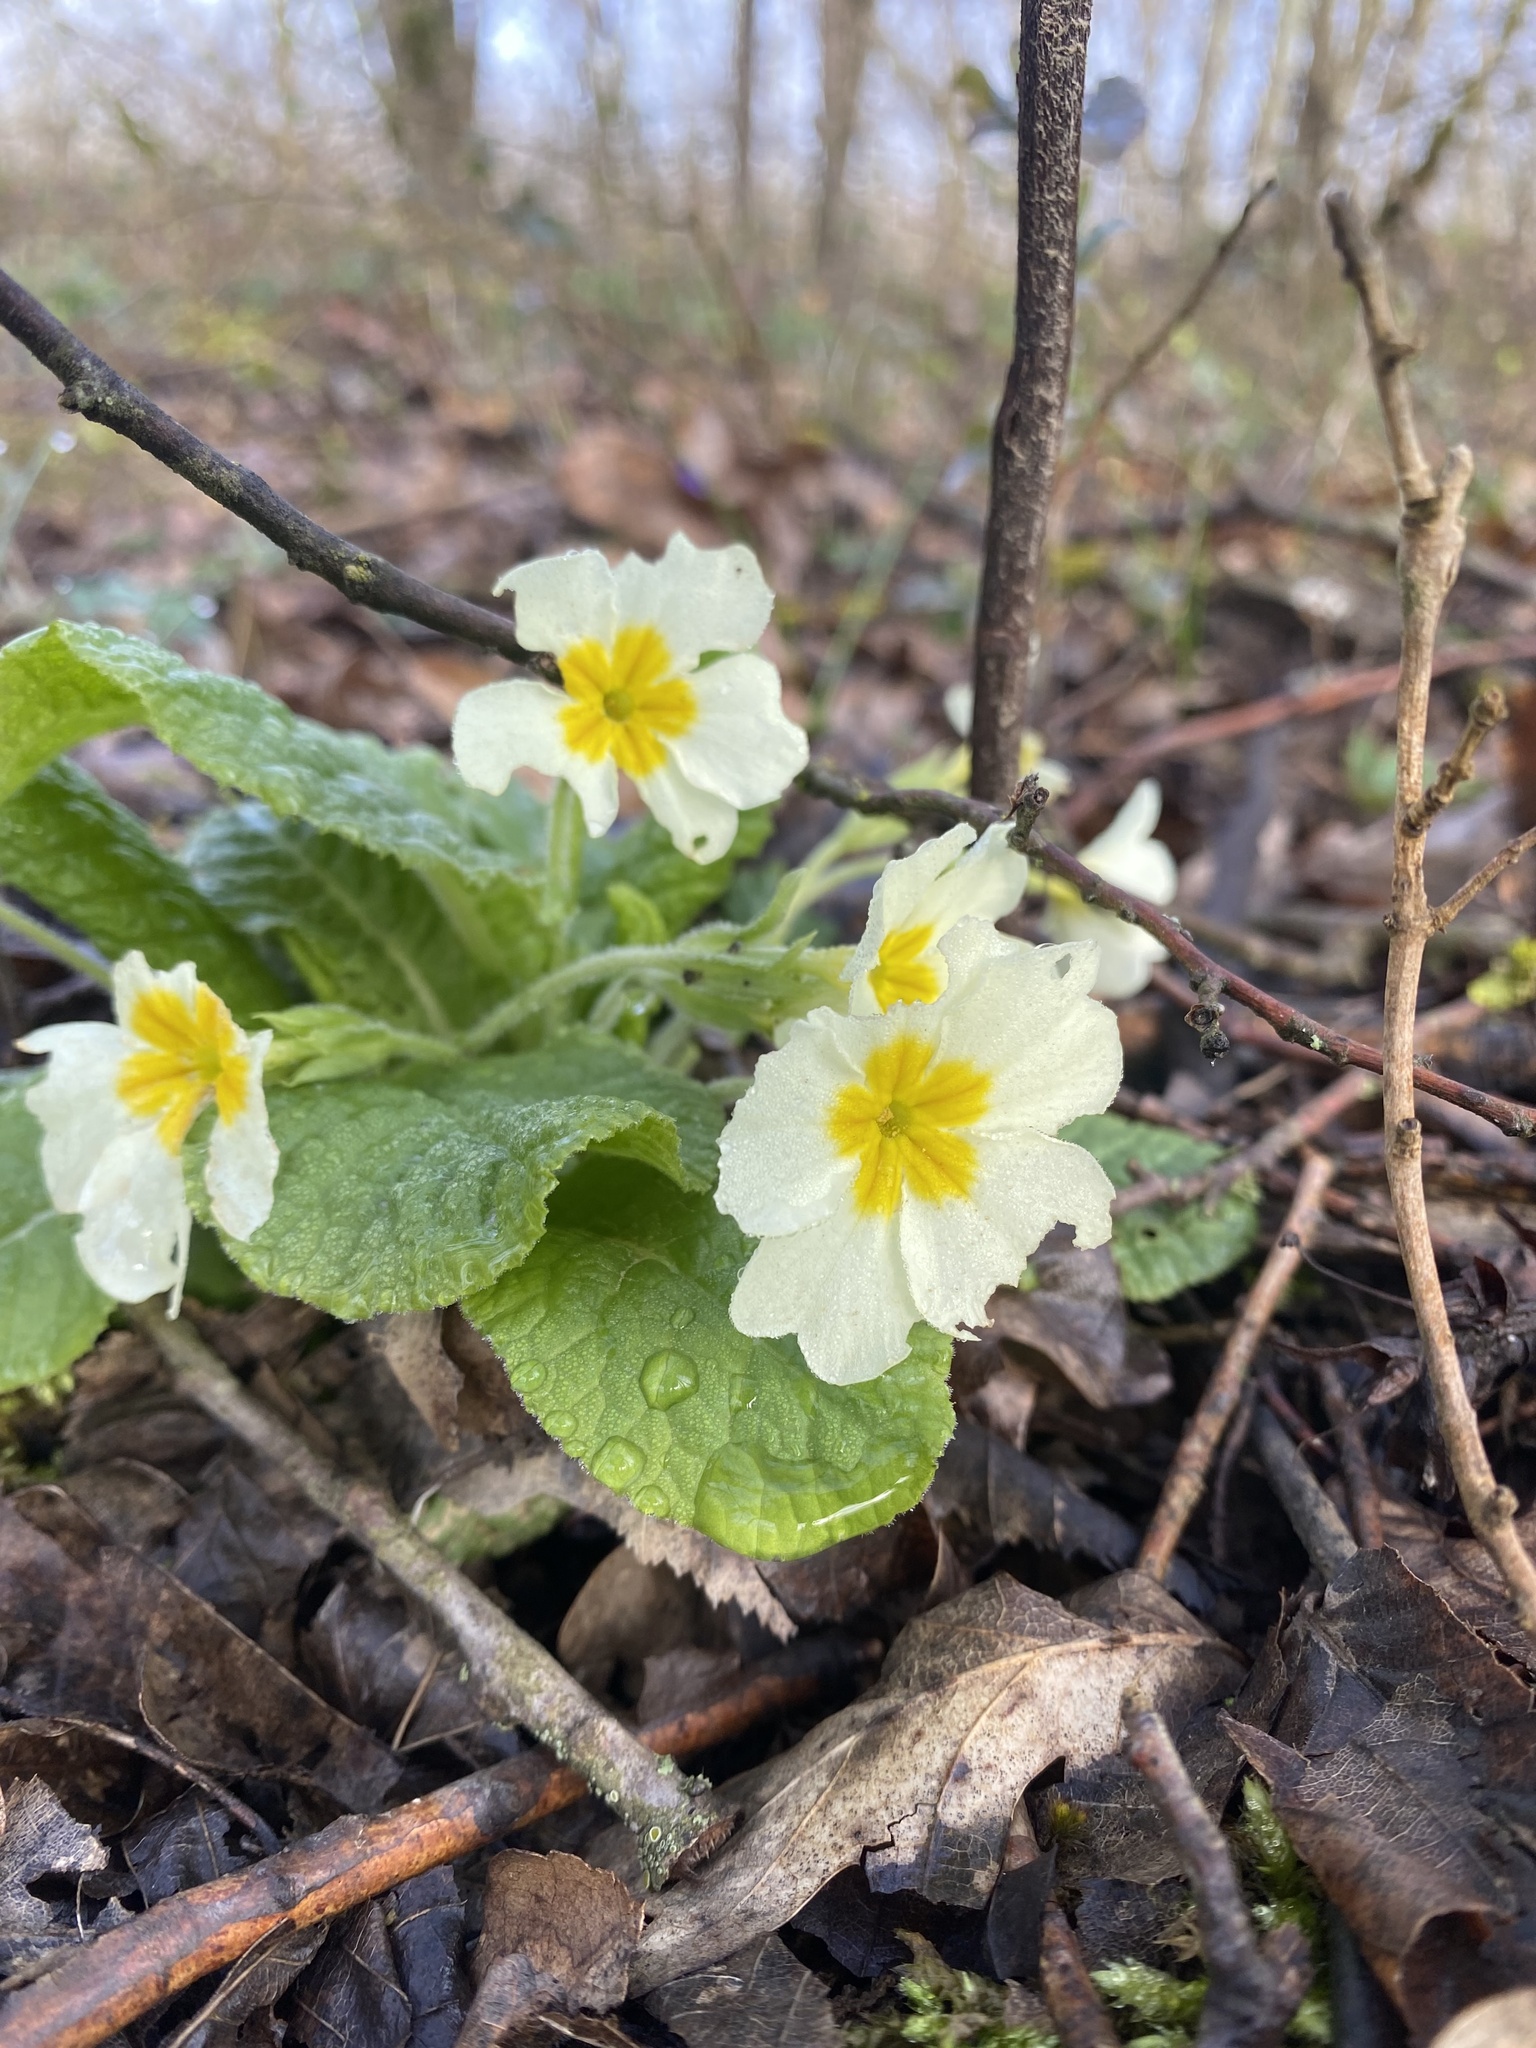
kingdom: Plantae
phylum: Tracheophyta
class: Magnoliopsida
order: Ericales
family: Primulaceae
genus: Primula
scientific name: Primula vulgaris
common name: Primrose
